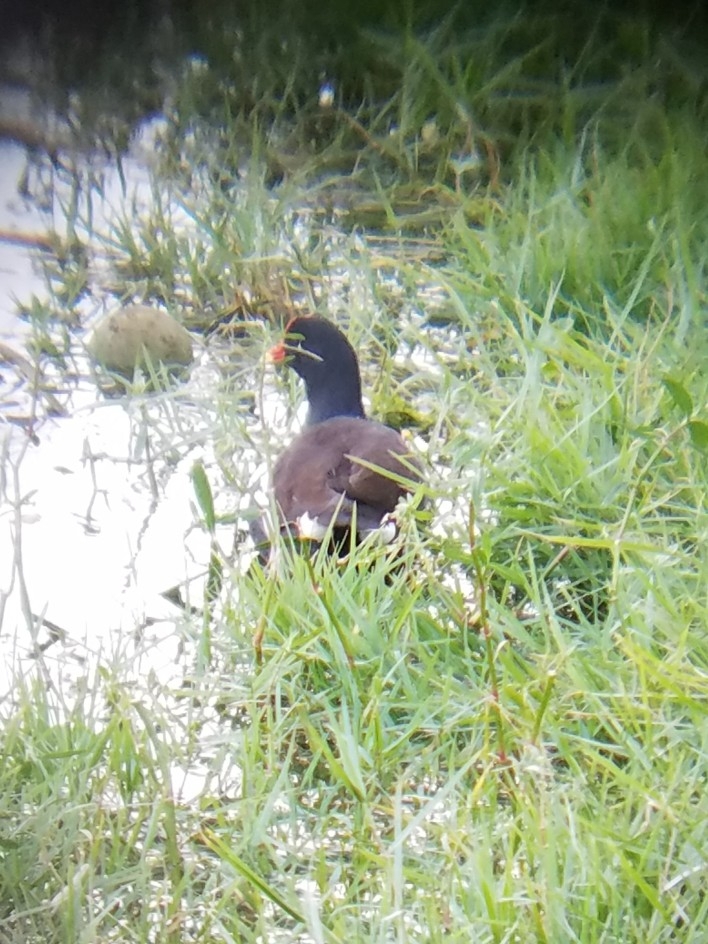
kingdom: Animalia
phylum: Chordata
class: Aves
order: Gruiformes
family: Rallidae
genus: Gallinula
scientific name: Gallinula chloropus
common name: Common moorhen
